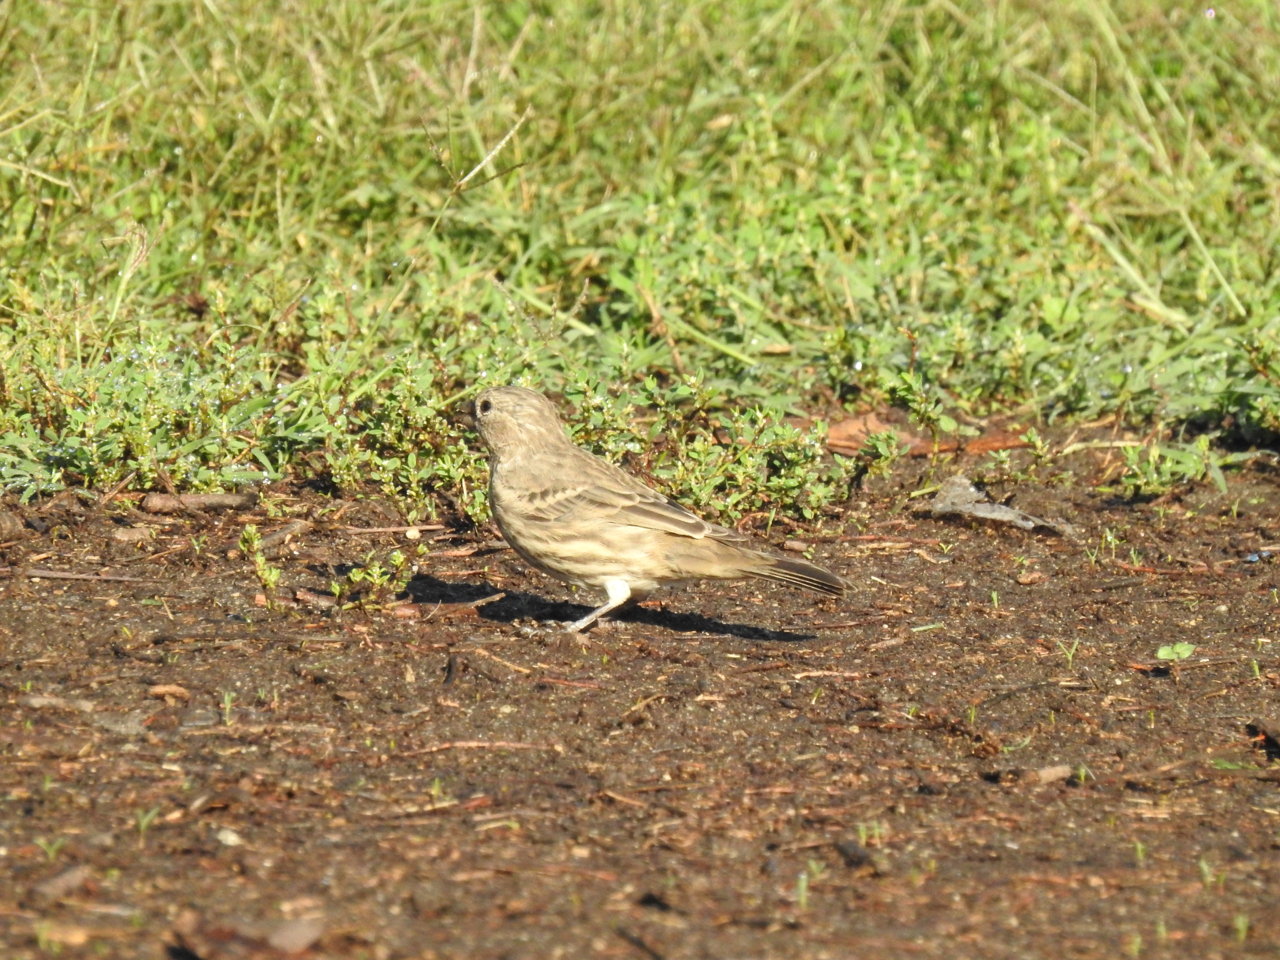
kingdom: Animalia
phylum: Chordata
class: Aves
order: Passeriformes
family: Fringillidae
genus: Haemorhous
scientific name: Haemorhous mexicanus
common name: House finch
